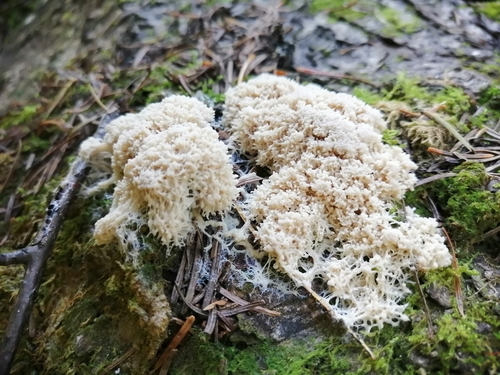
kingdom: Protozoa
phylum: Mycetozoa
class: Myxomycetes
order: Physarales
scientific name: Physarales
